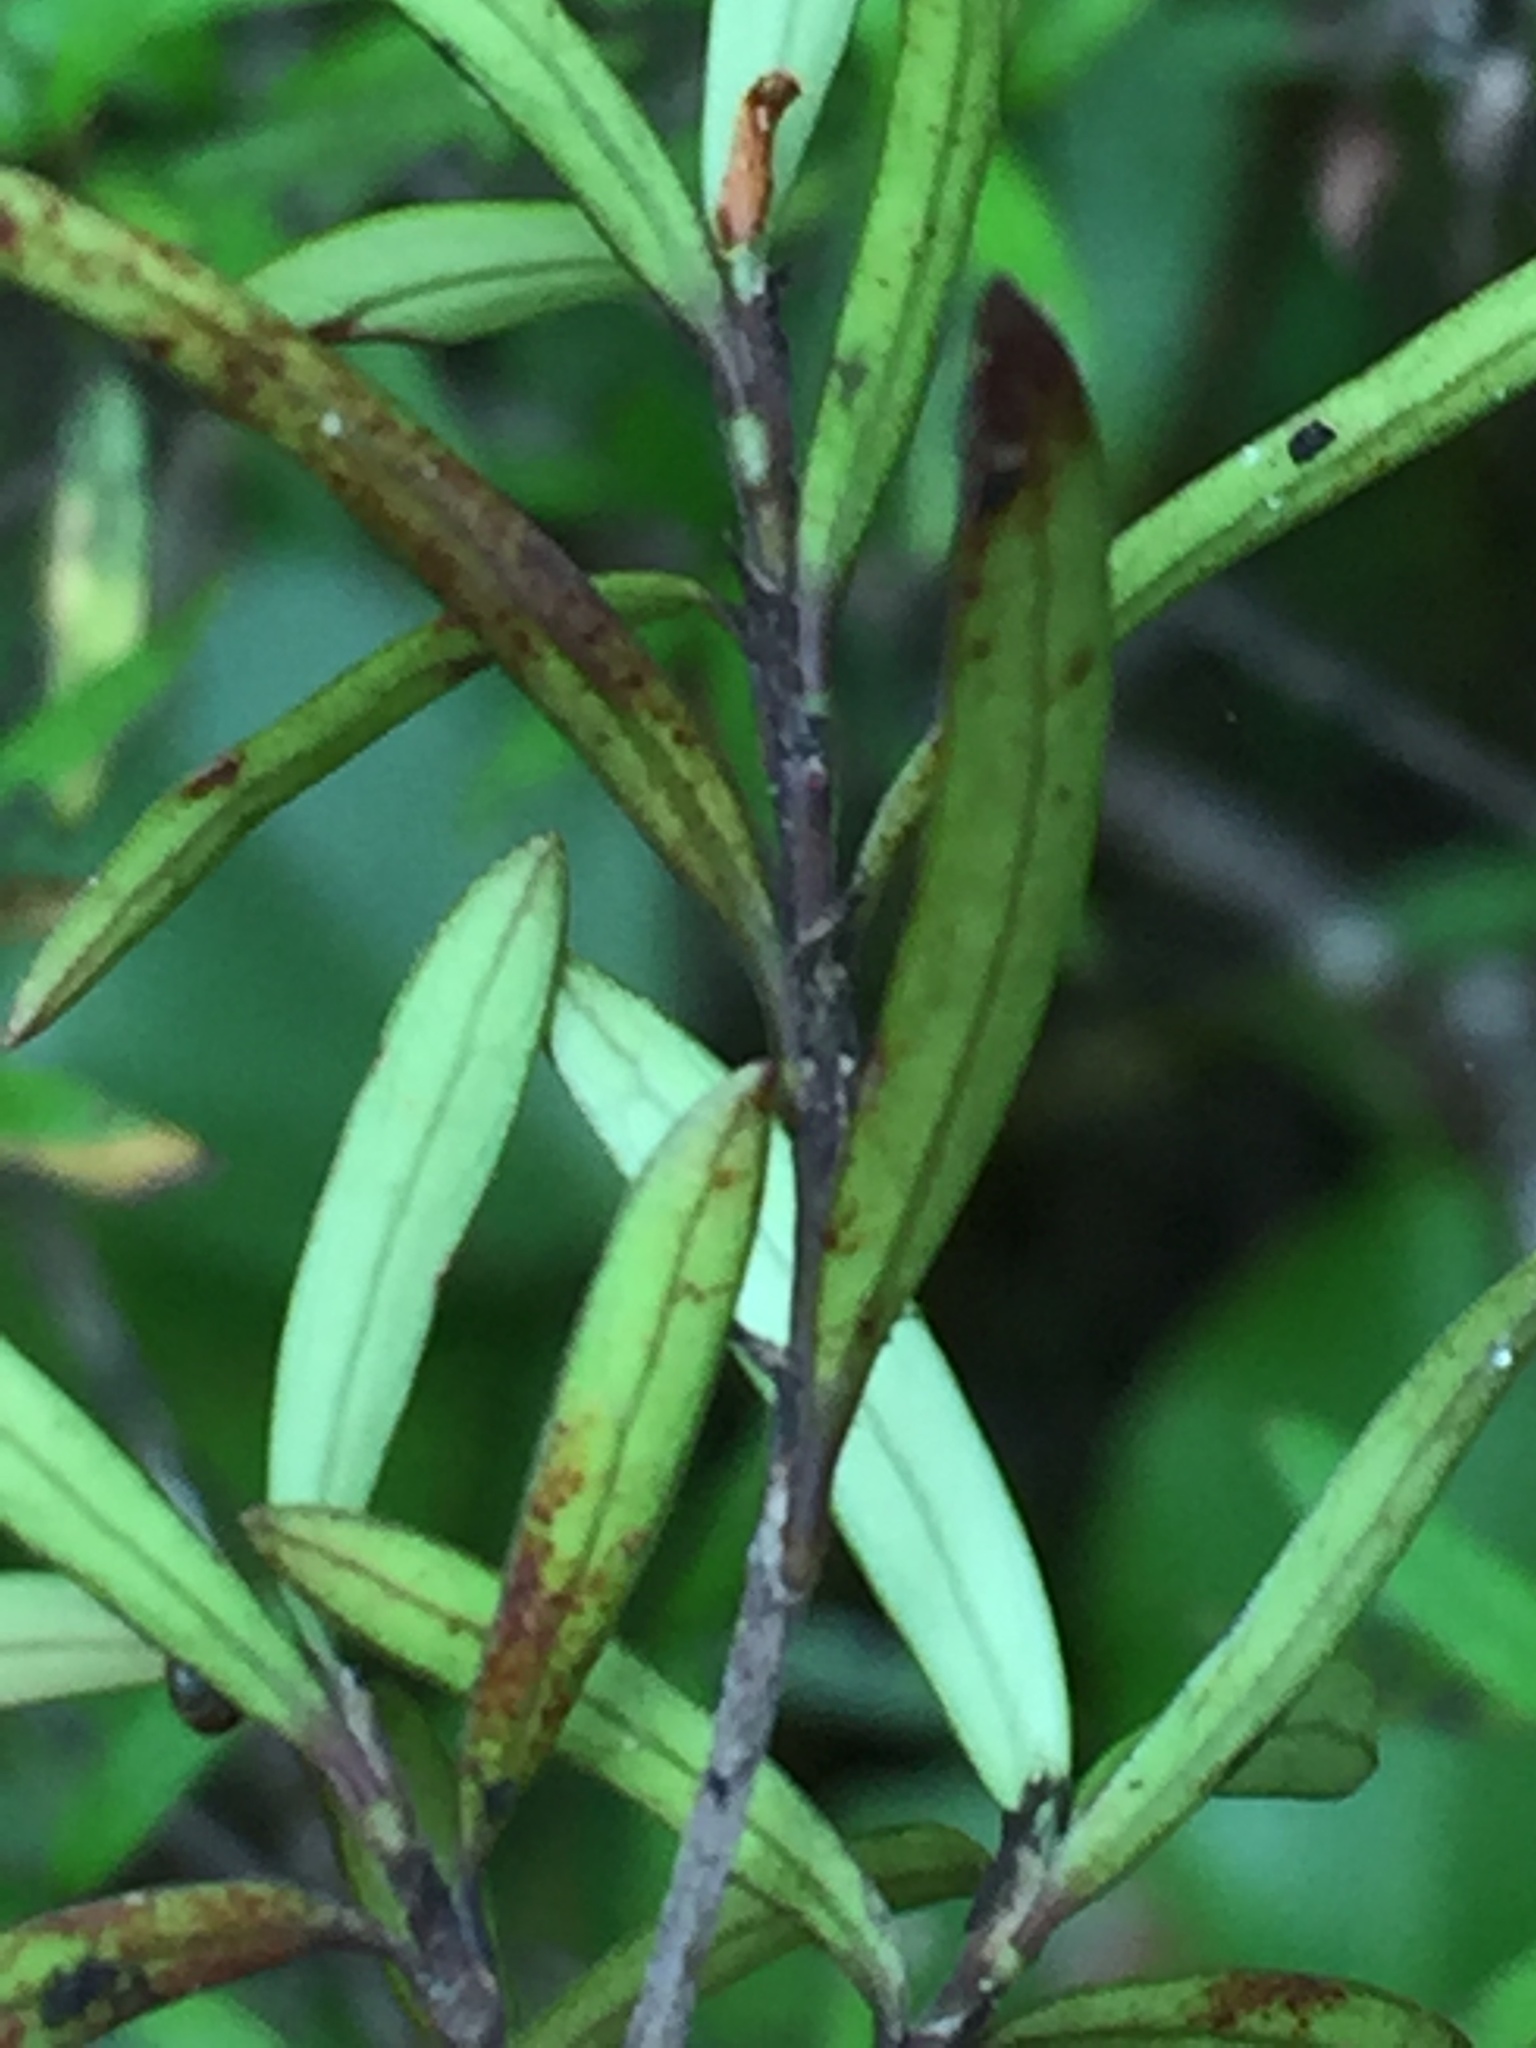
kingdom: Plantae
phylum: Tracheophyta
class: Magnoliopsida
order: Gentianales
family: Rubiaceae
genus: Coprosma
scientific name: Coprosma linariifolia
